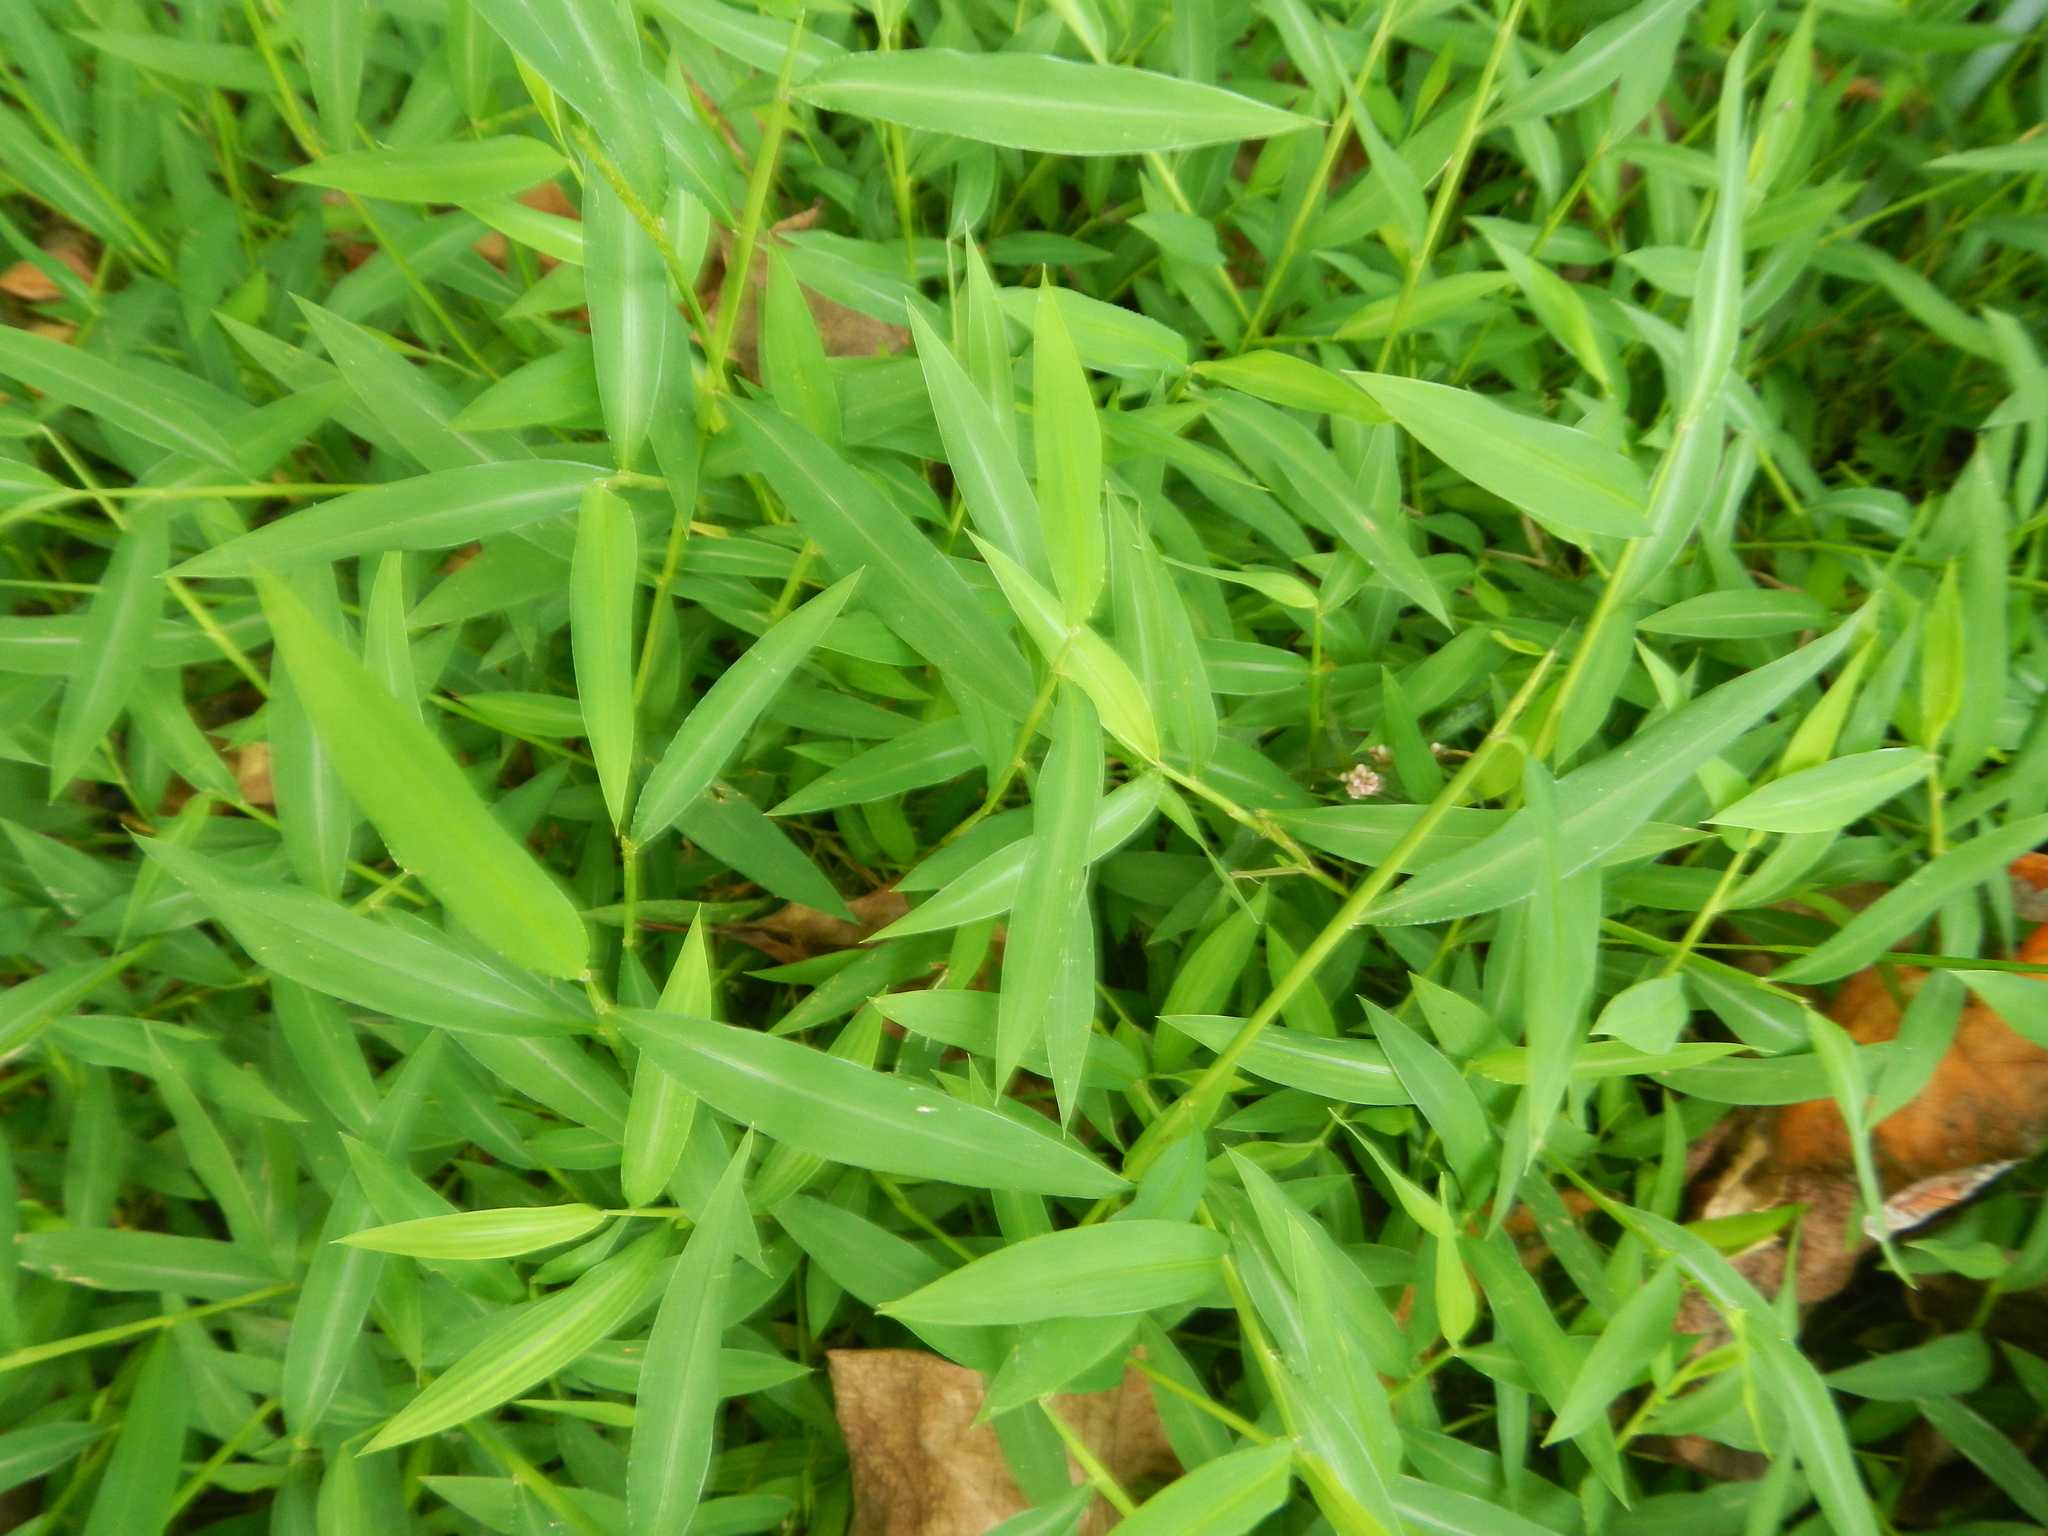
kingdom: Plantae
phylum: Tracheophyta
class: Liliopsida
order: Poales
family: Poaceae
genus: Microstegium
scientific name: Microstegium vimineum
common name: Japanese stiltgrass
